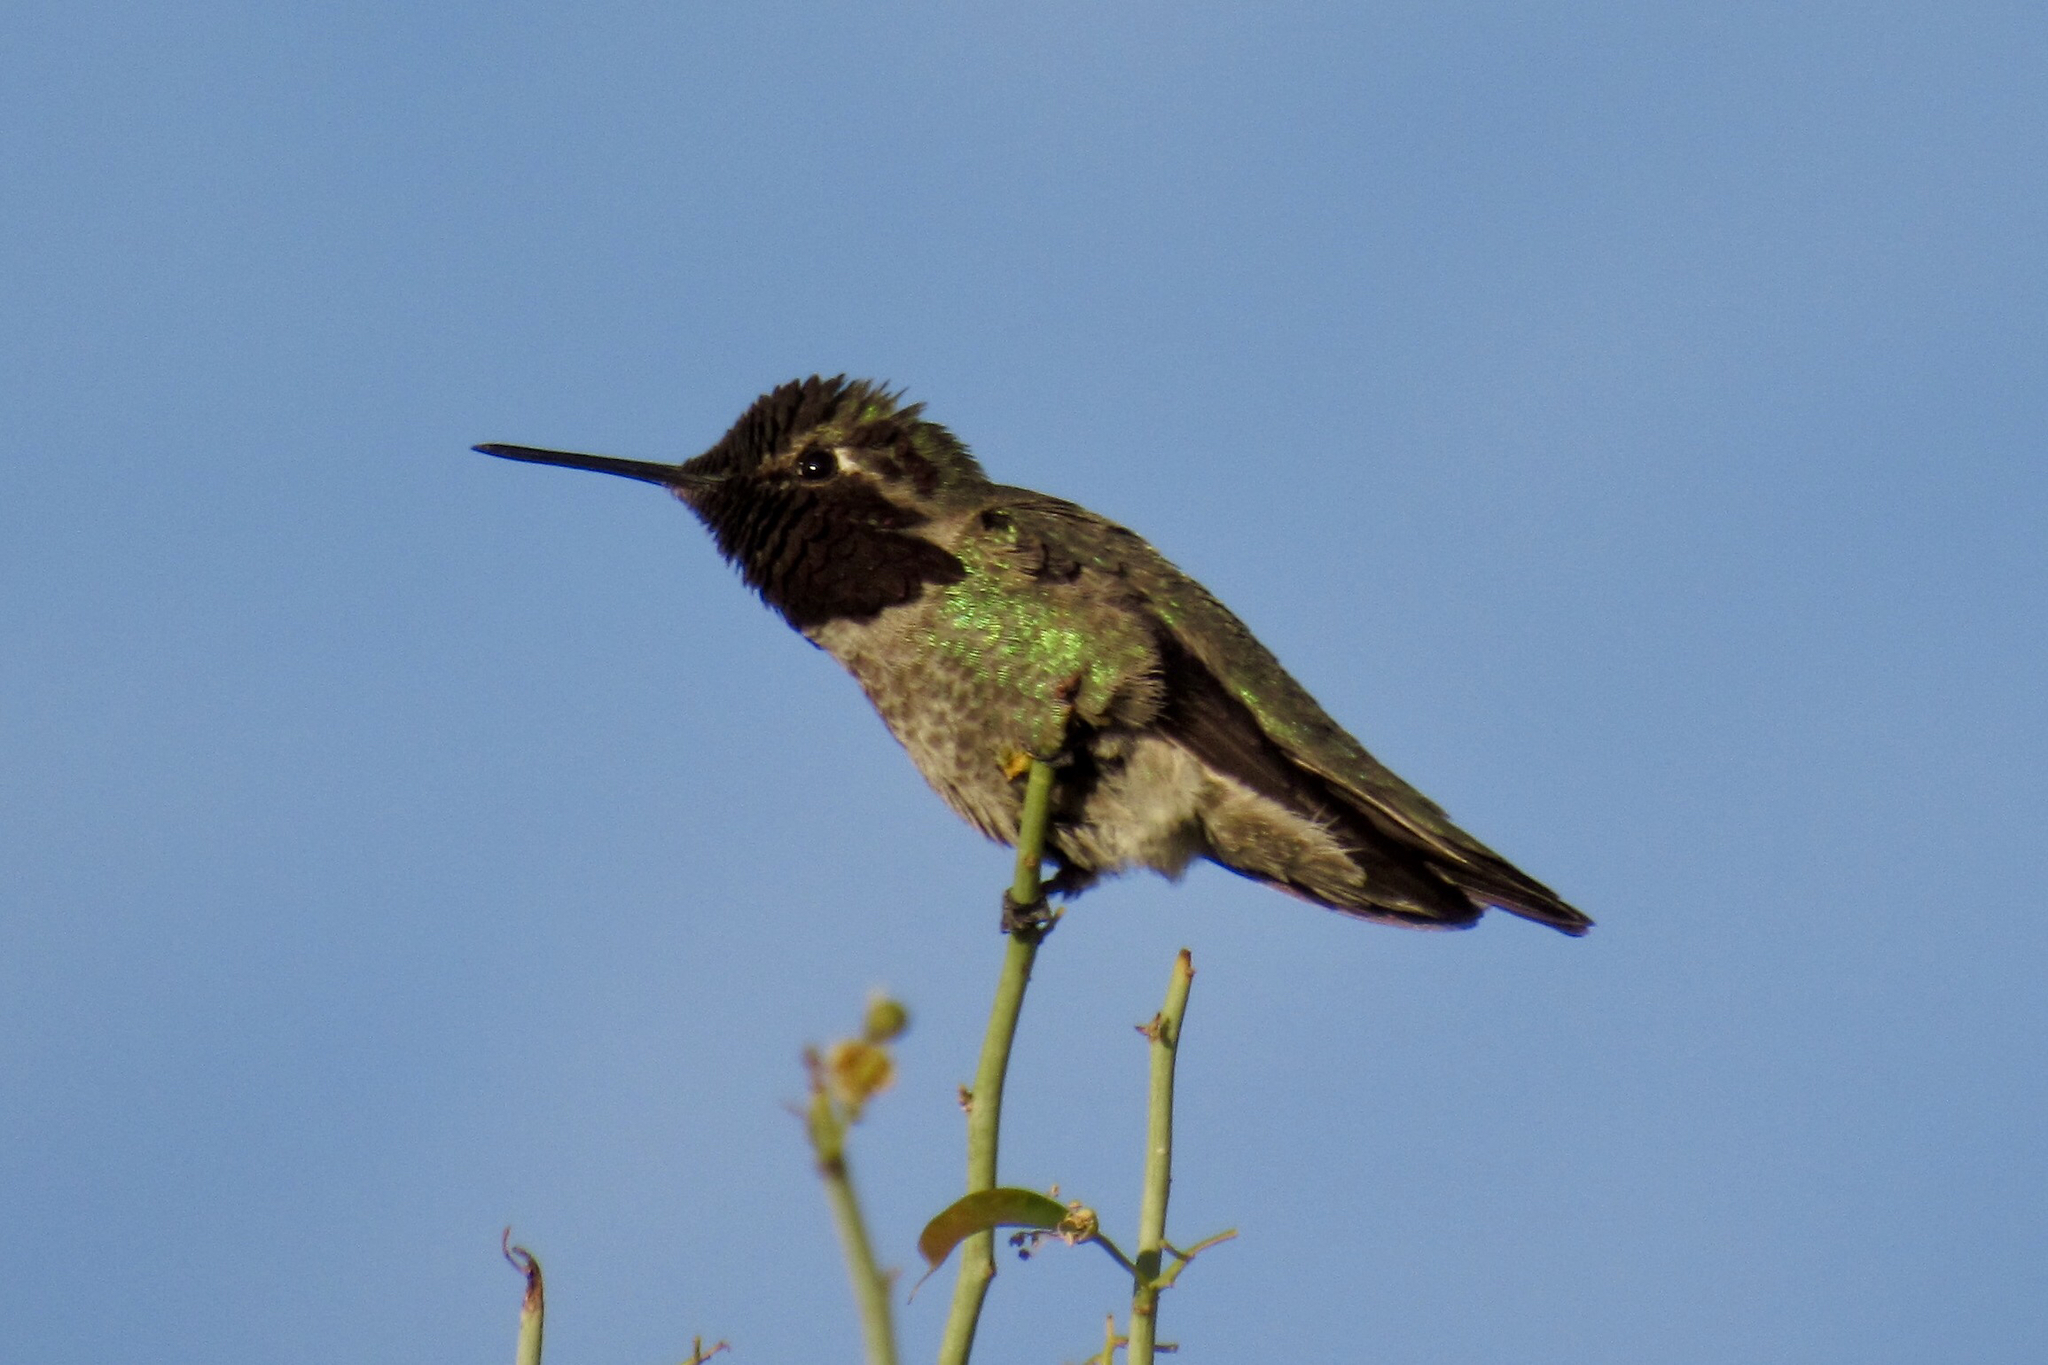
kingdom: Animalia
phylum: Chordata
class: Aves
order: Apodiformes
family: Trochilidae
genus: Calypte
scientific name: Calypte anna
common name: Anna's hummingbird
